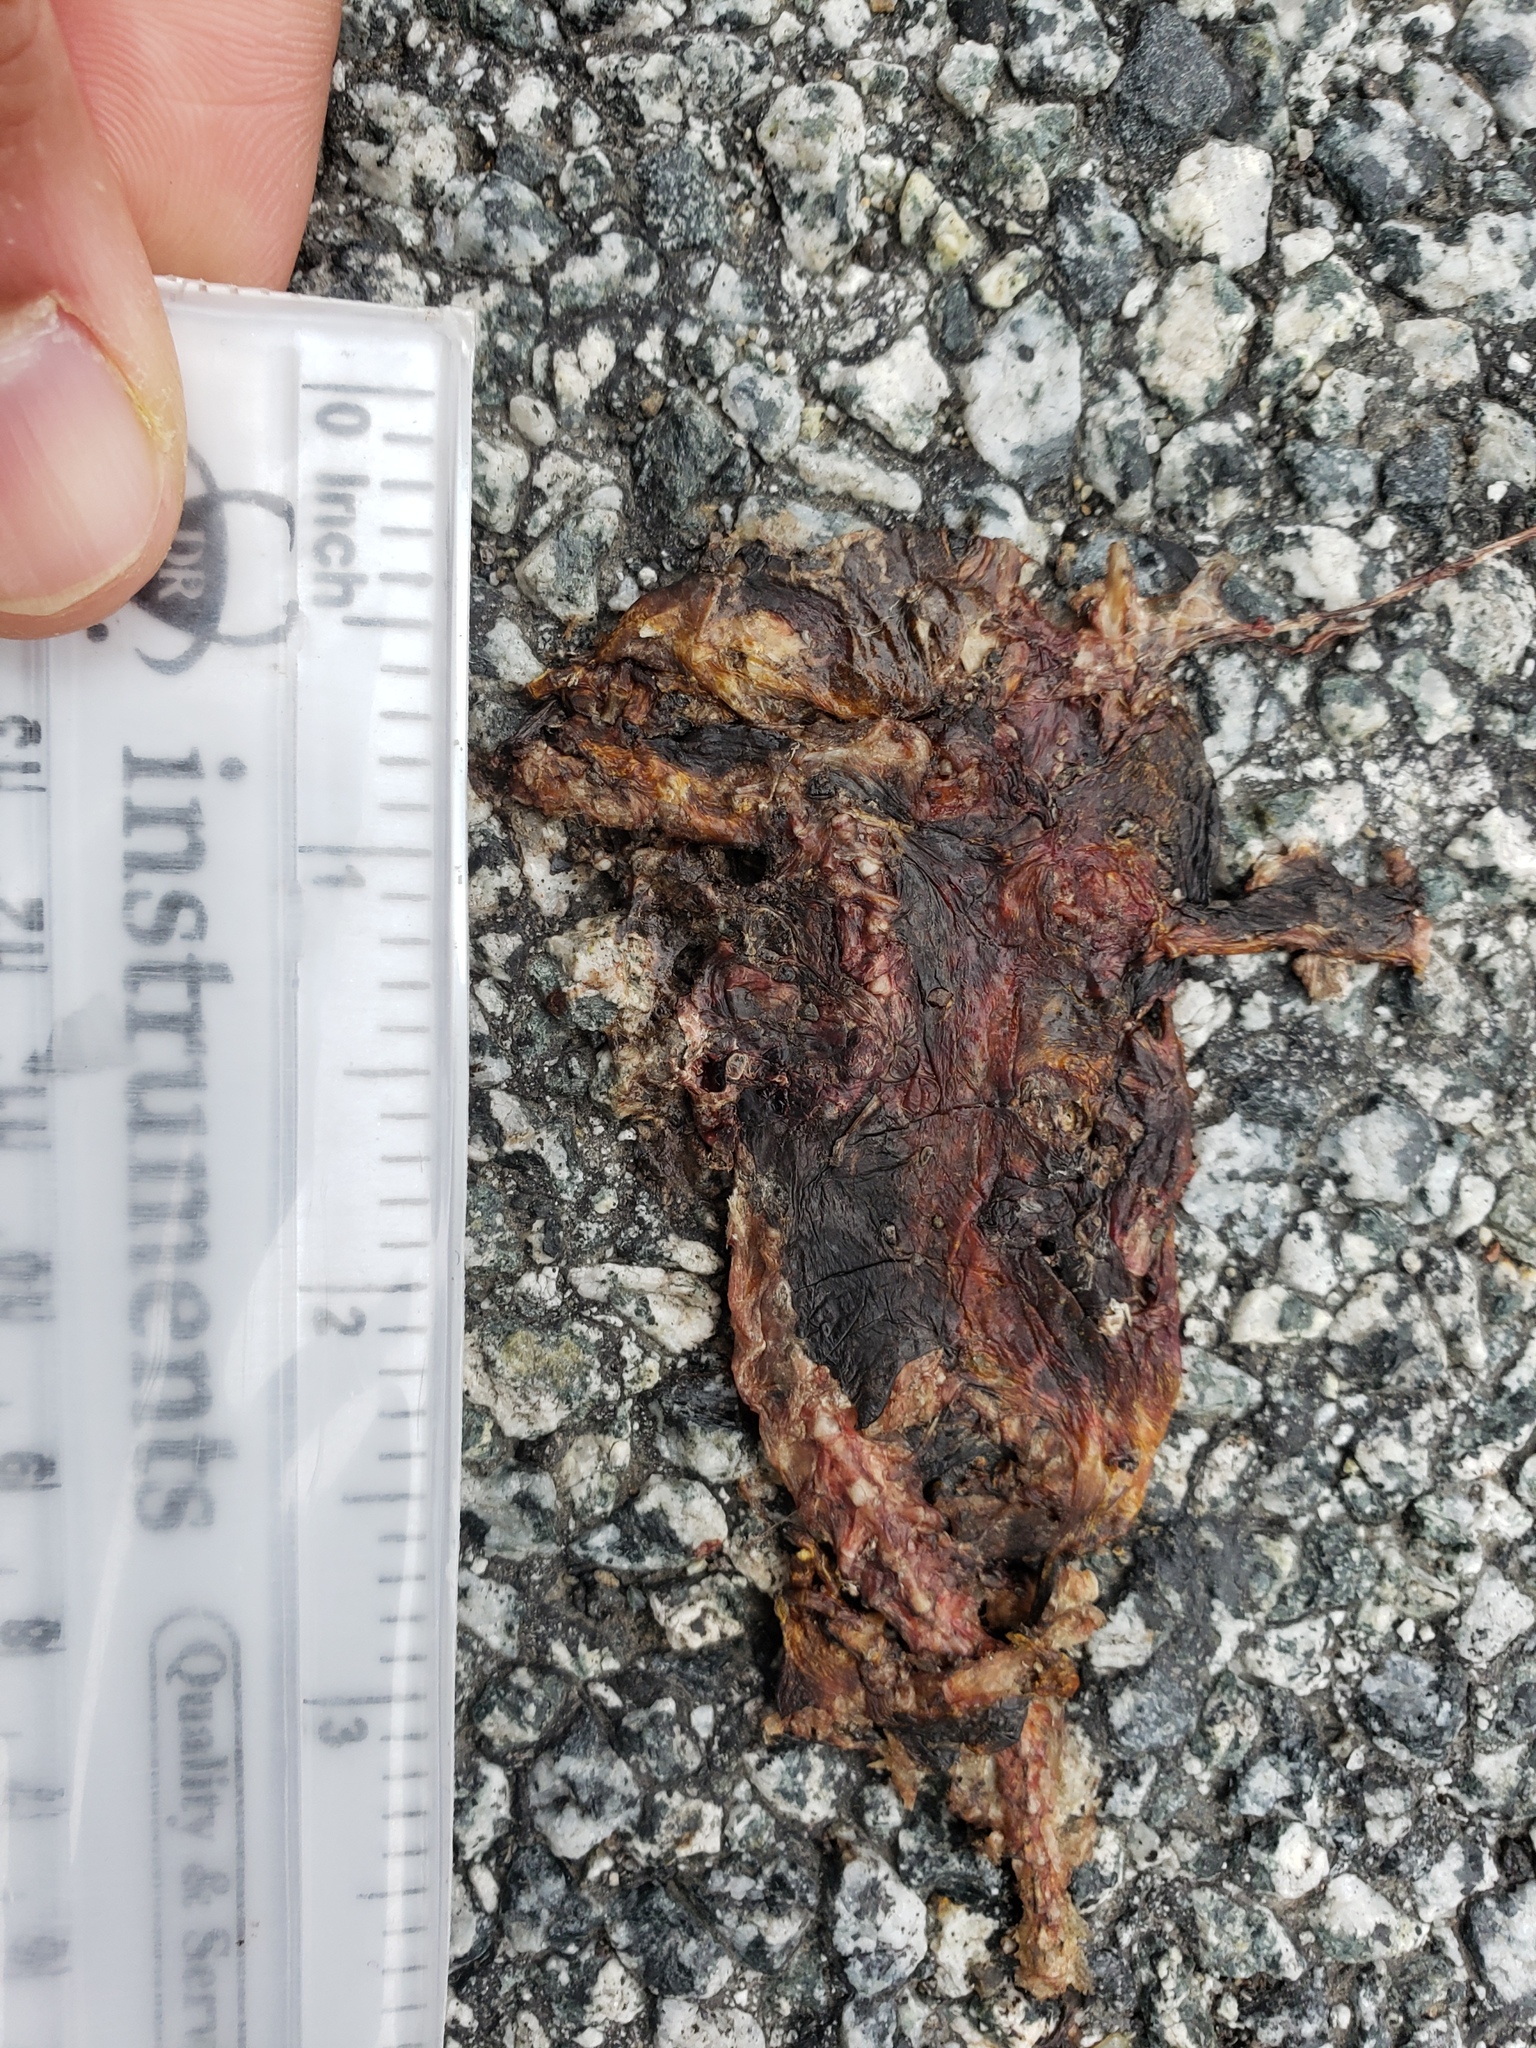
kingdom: Animalia
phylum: Chordata
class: Amphibia
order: Caudata
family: Salamandridae
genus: Taricha
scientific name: Taricha
